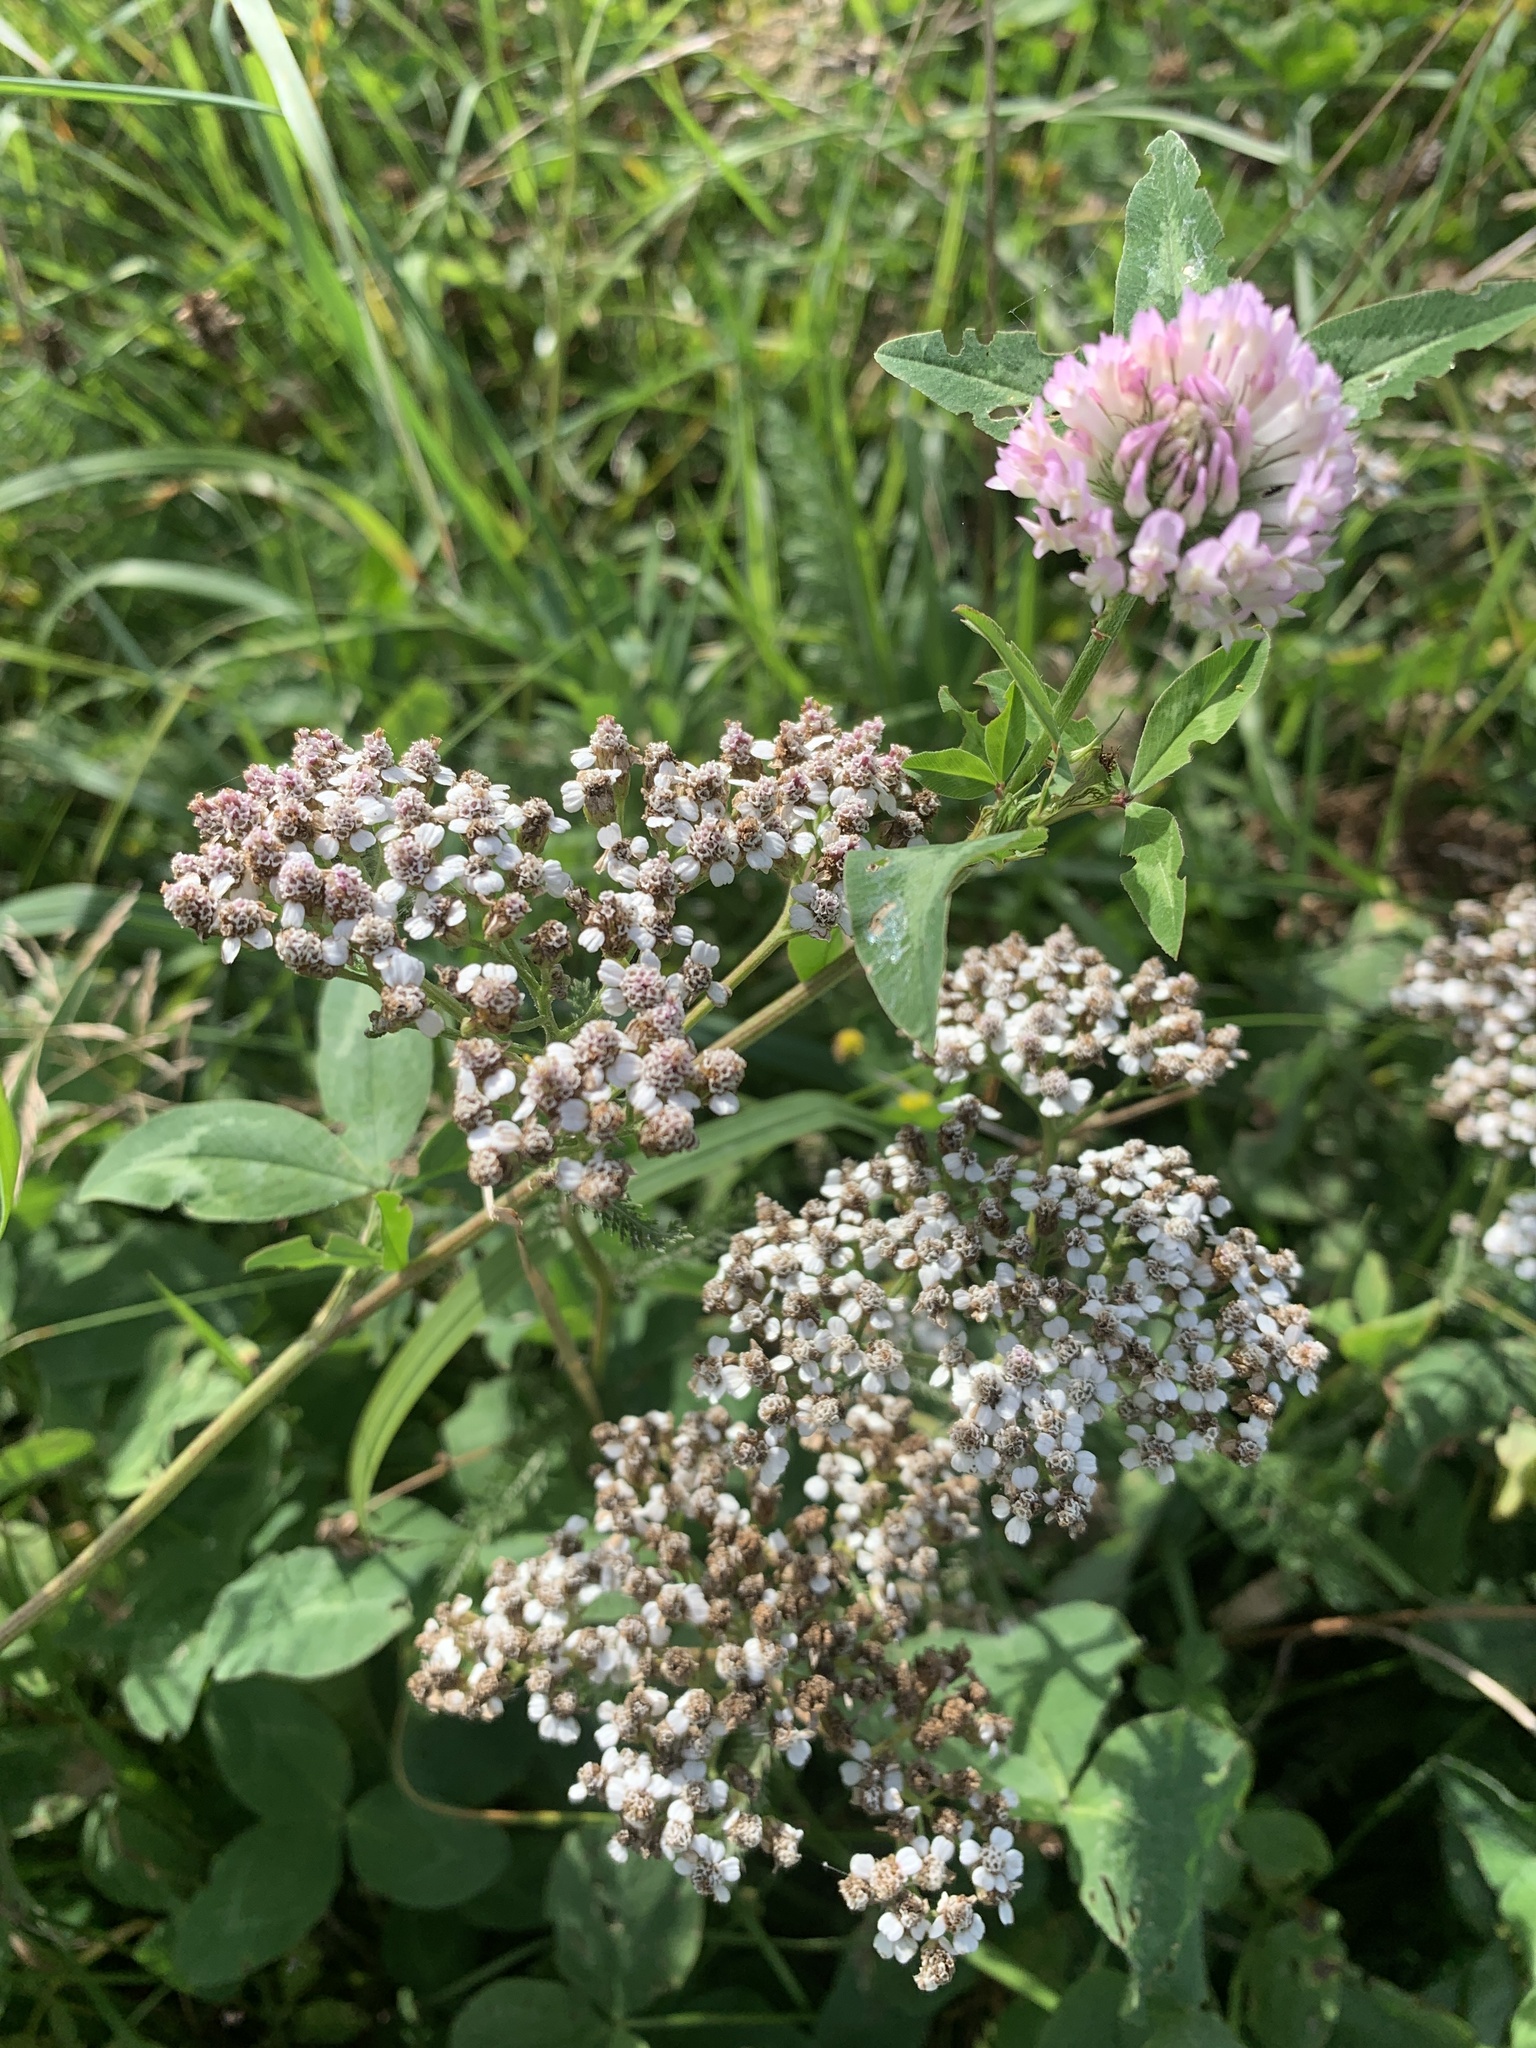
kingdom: Plantae
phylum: Tracheophyta
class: Magnoliopsida
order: Asterales
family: Asteraceae
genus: Achillea
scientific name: Achillea millefolium
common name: Yarrow
